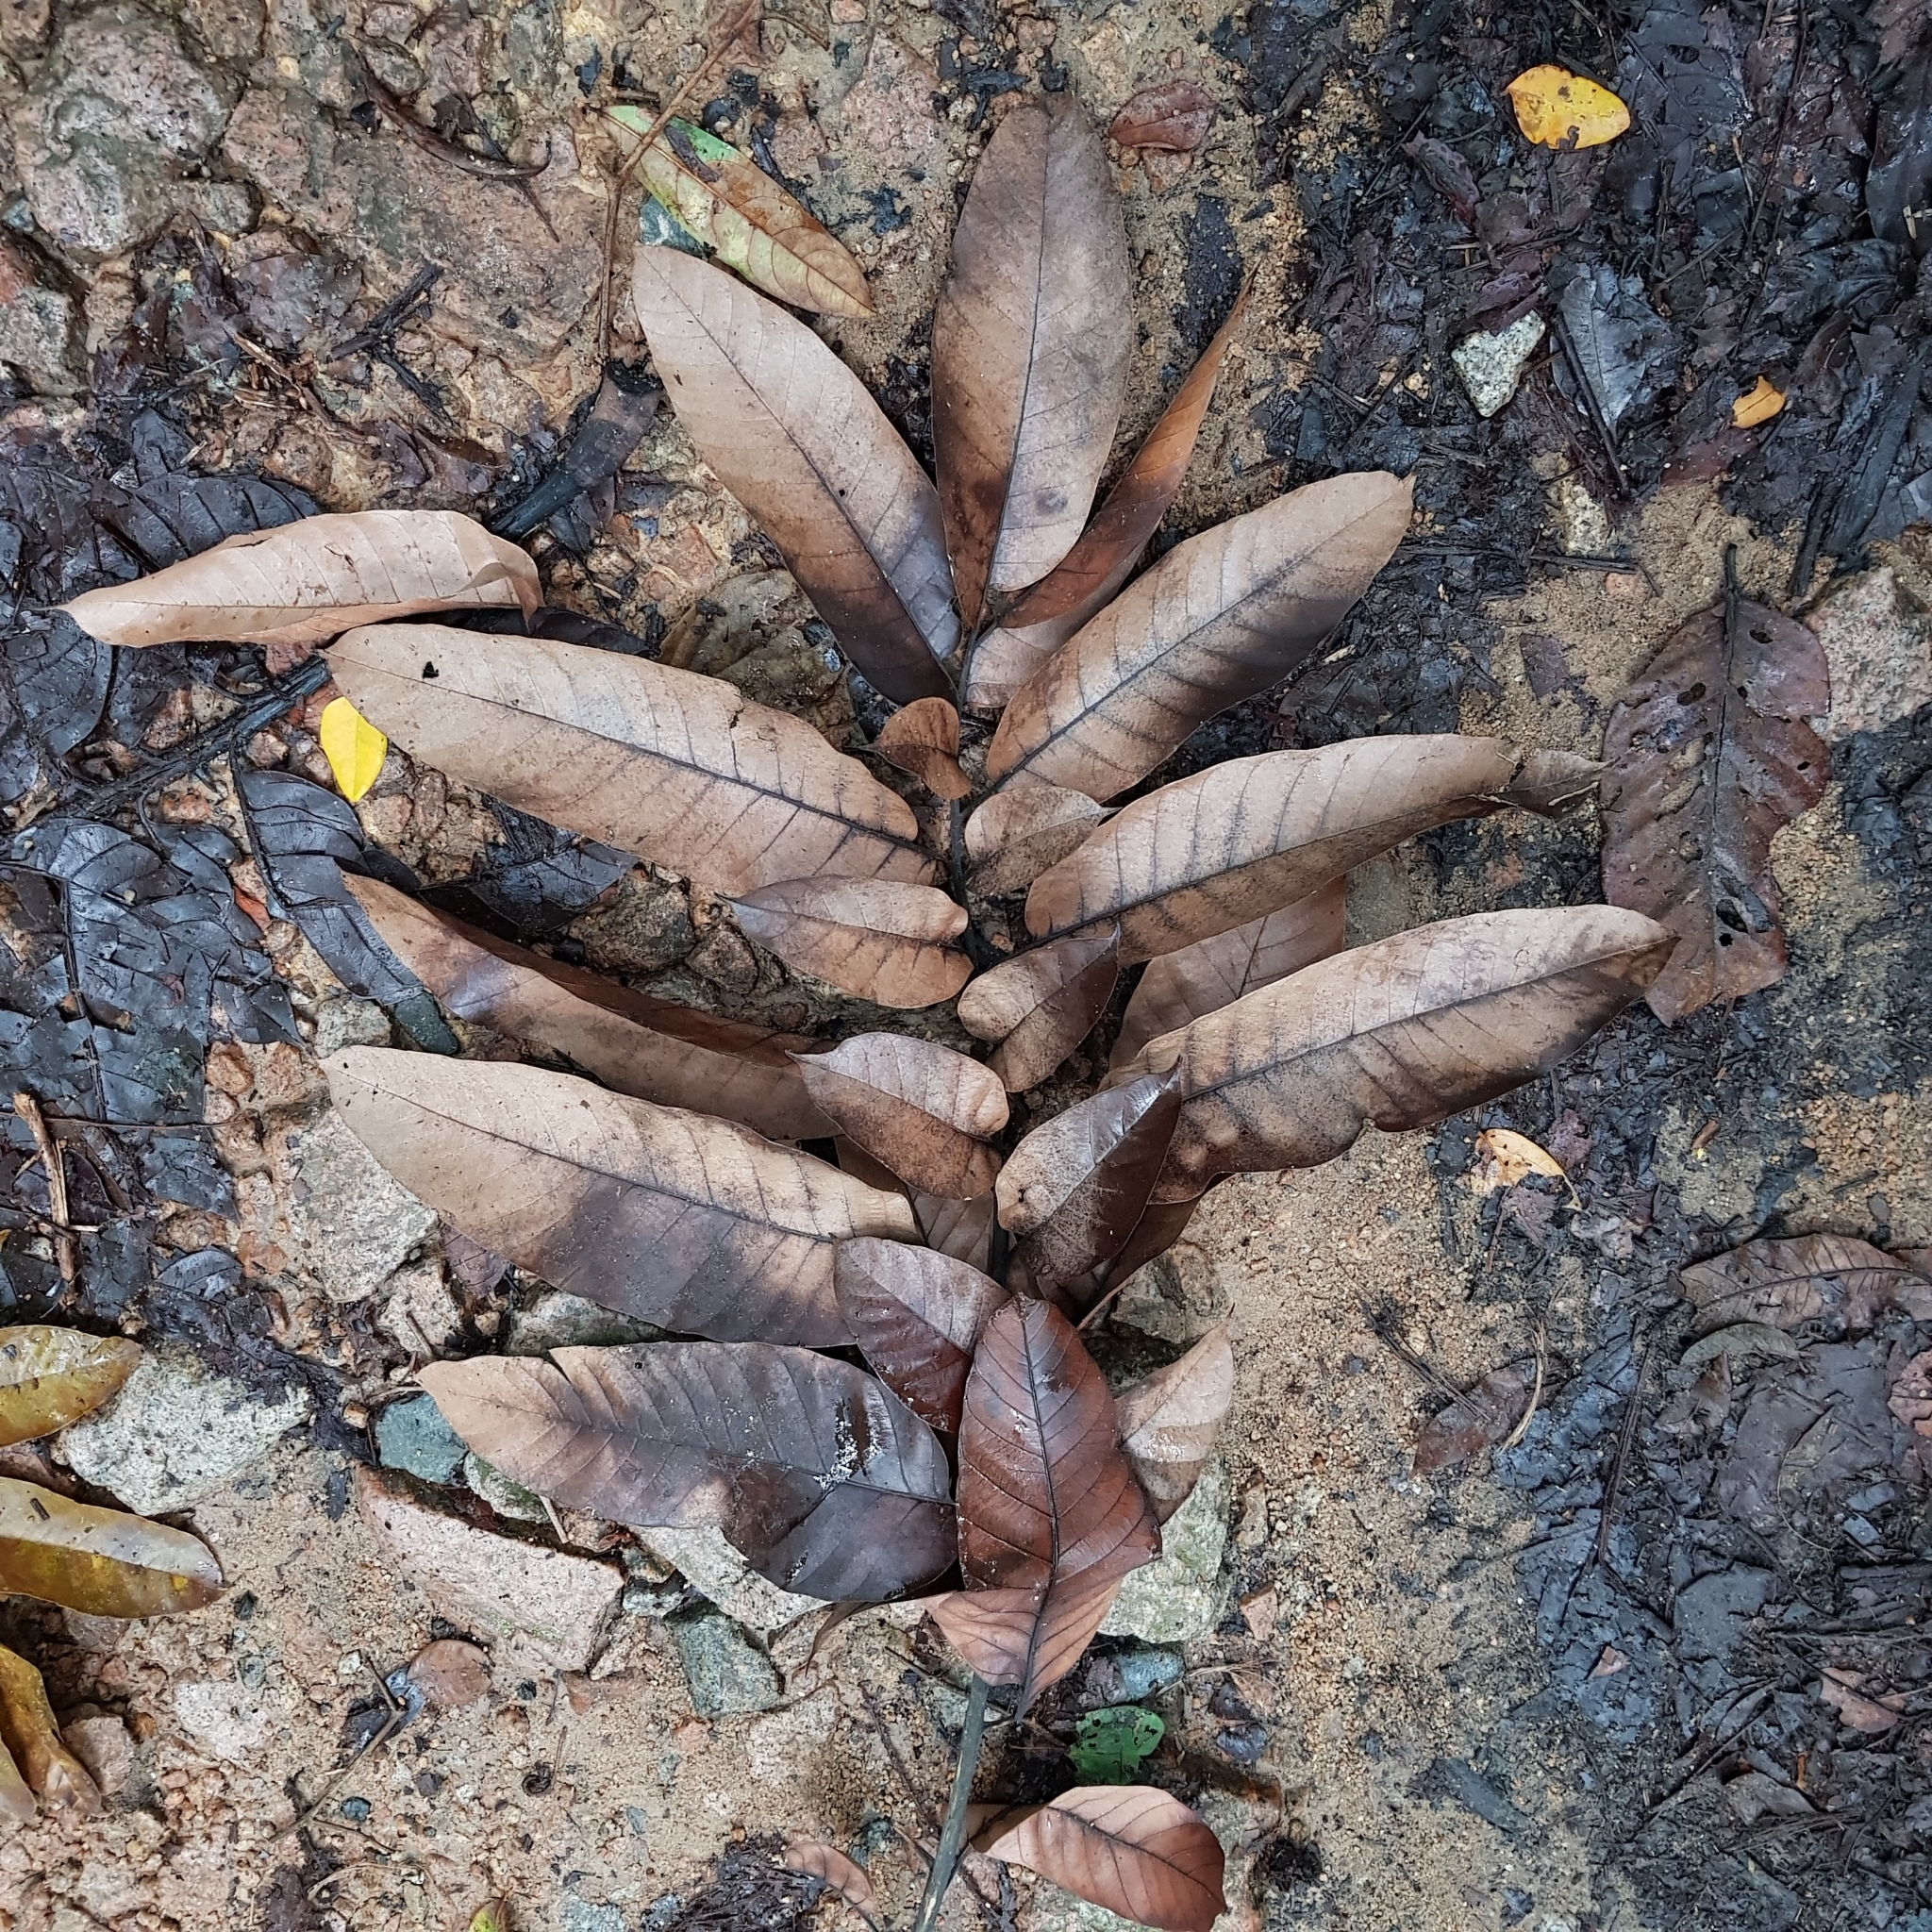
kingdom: Plantae
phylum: Tracheophyta
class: Magnoliopsida
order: Rosales
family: Moraceae
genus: Artocarpus
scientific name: Artocarpus anisophyllus
